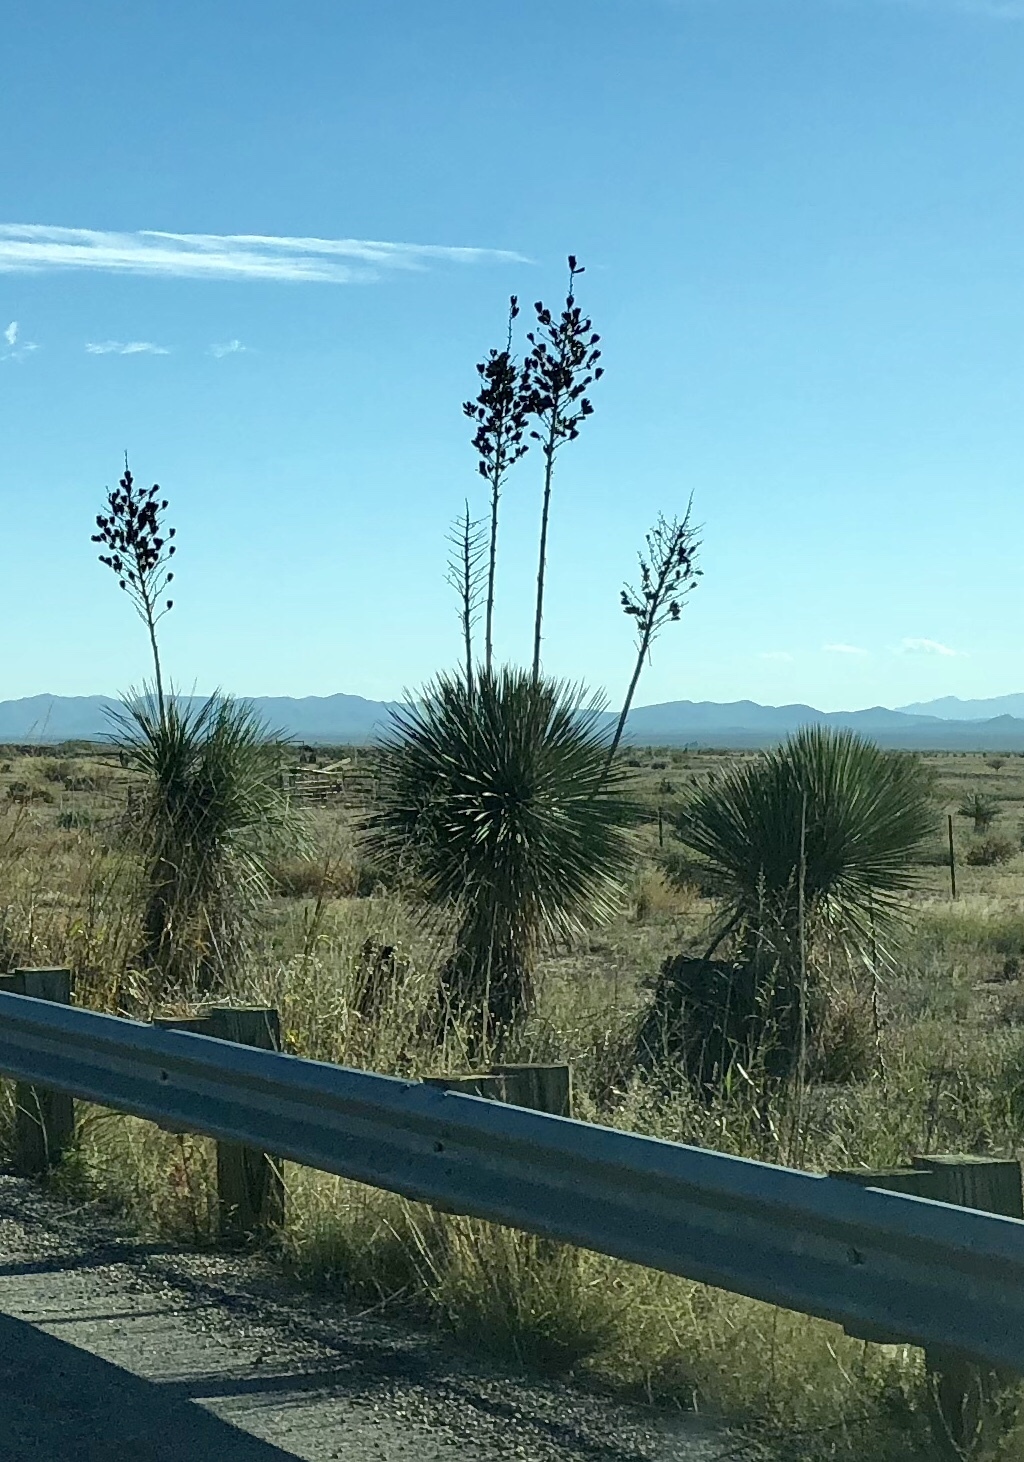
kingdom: Plantae
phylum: Tracheophyta
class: Liliopsida
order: Asparagales
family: Asparagaceae
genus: Yucca
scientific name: Yucca elata
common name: Palmella
